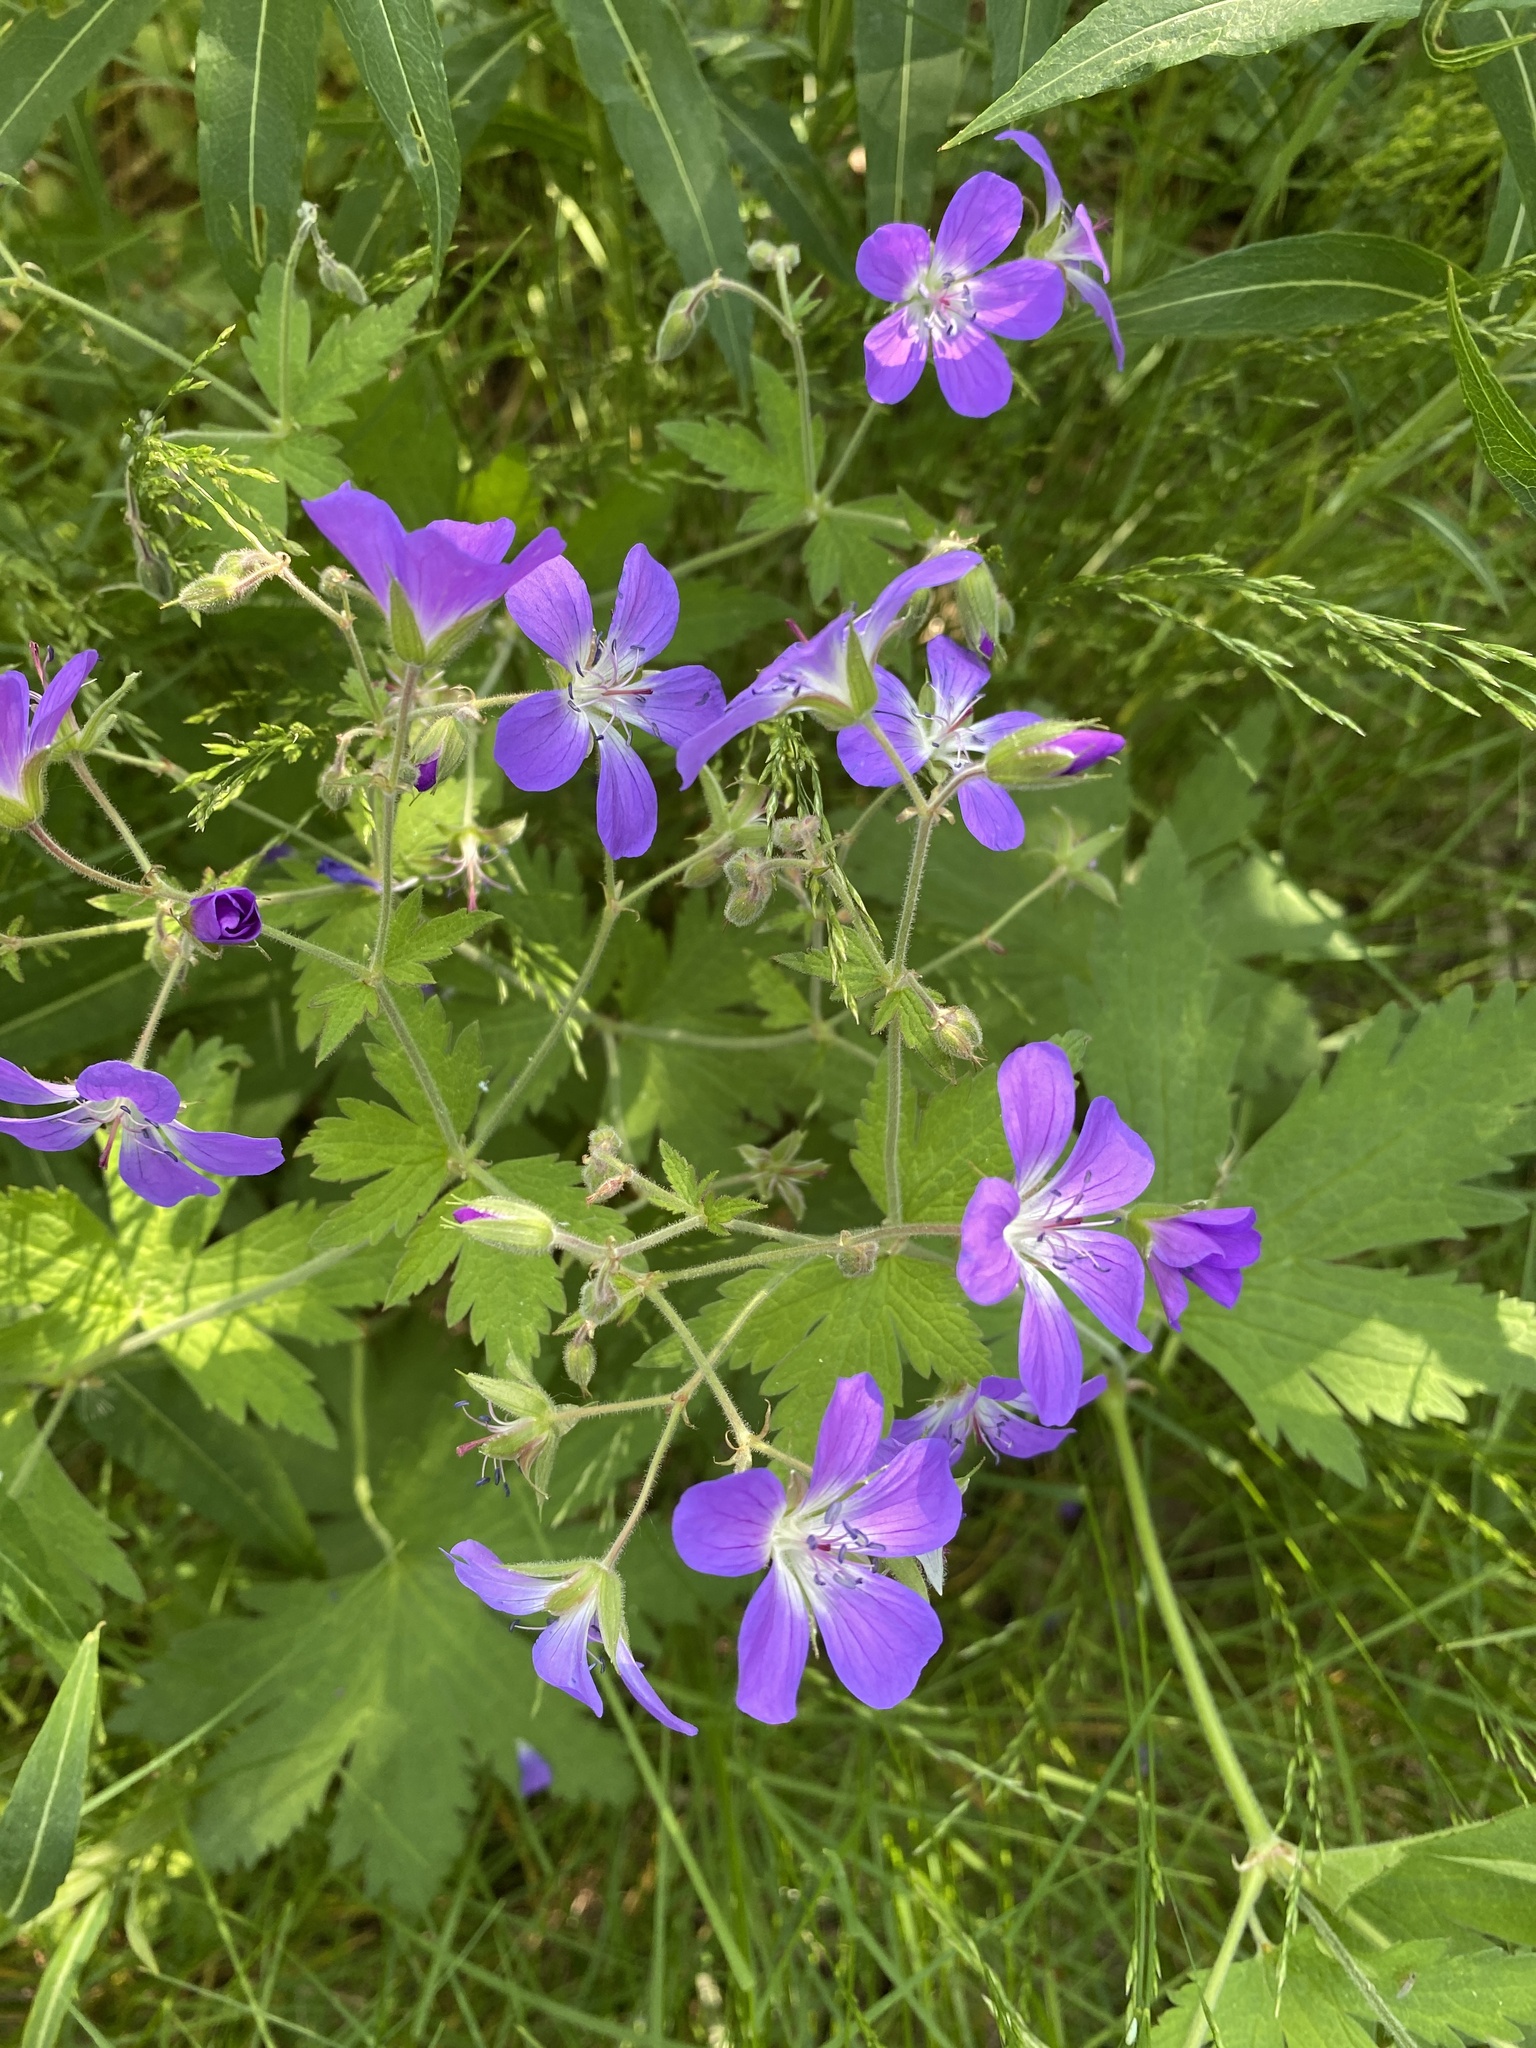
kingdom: Plantae
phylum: Tracheophyta
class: Magnoliopsida
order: Geraniales
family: Geraniaceae
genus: Geranium
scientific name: Geranium sylvaticum
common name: Wood crane's-bill
